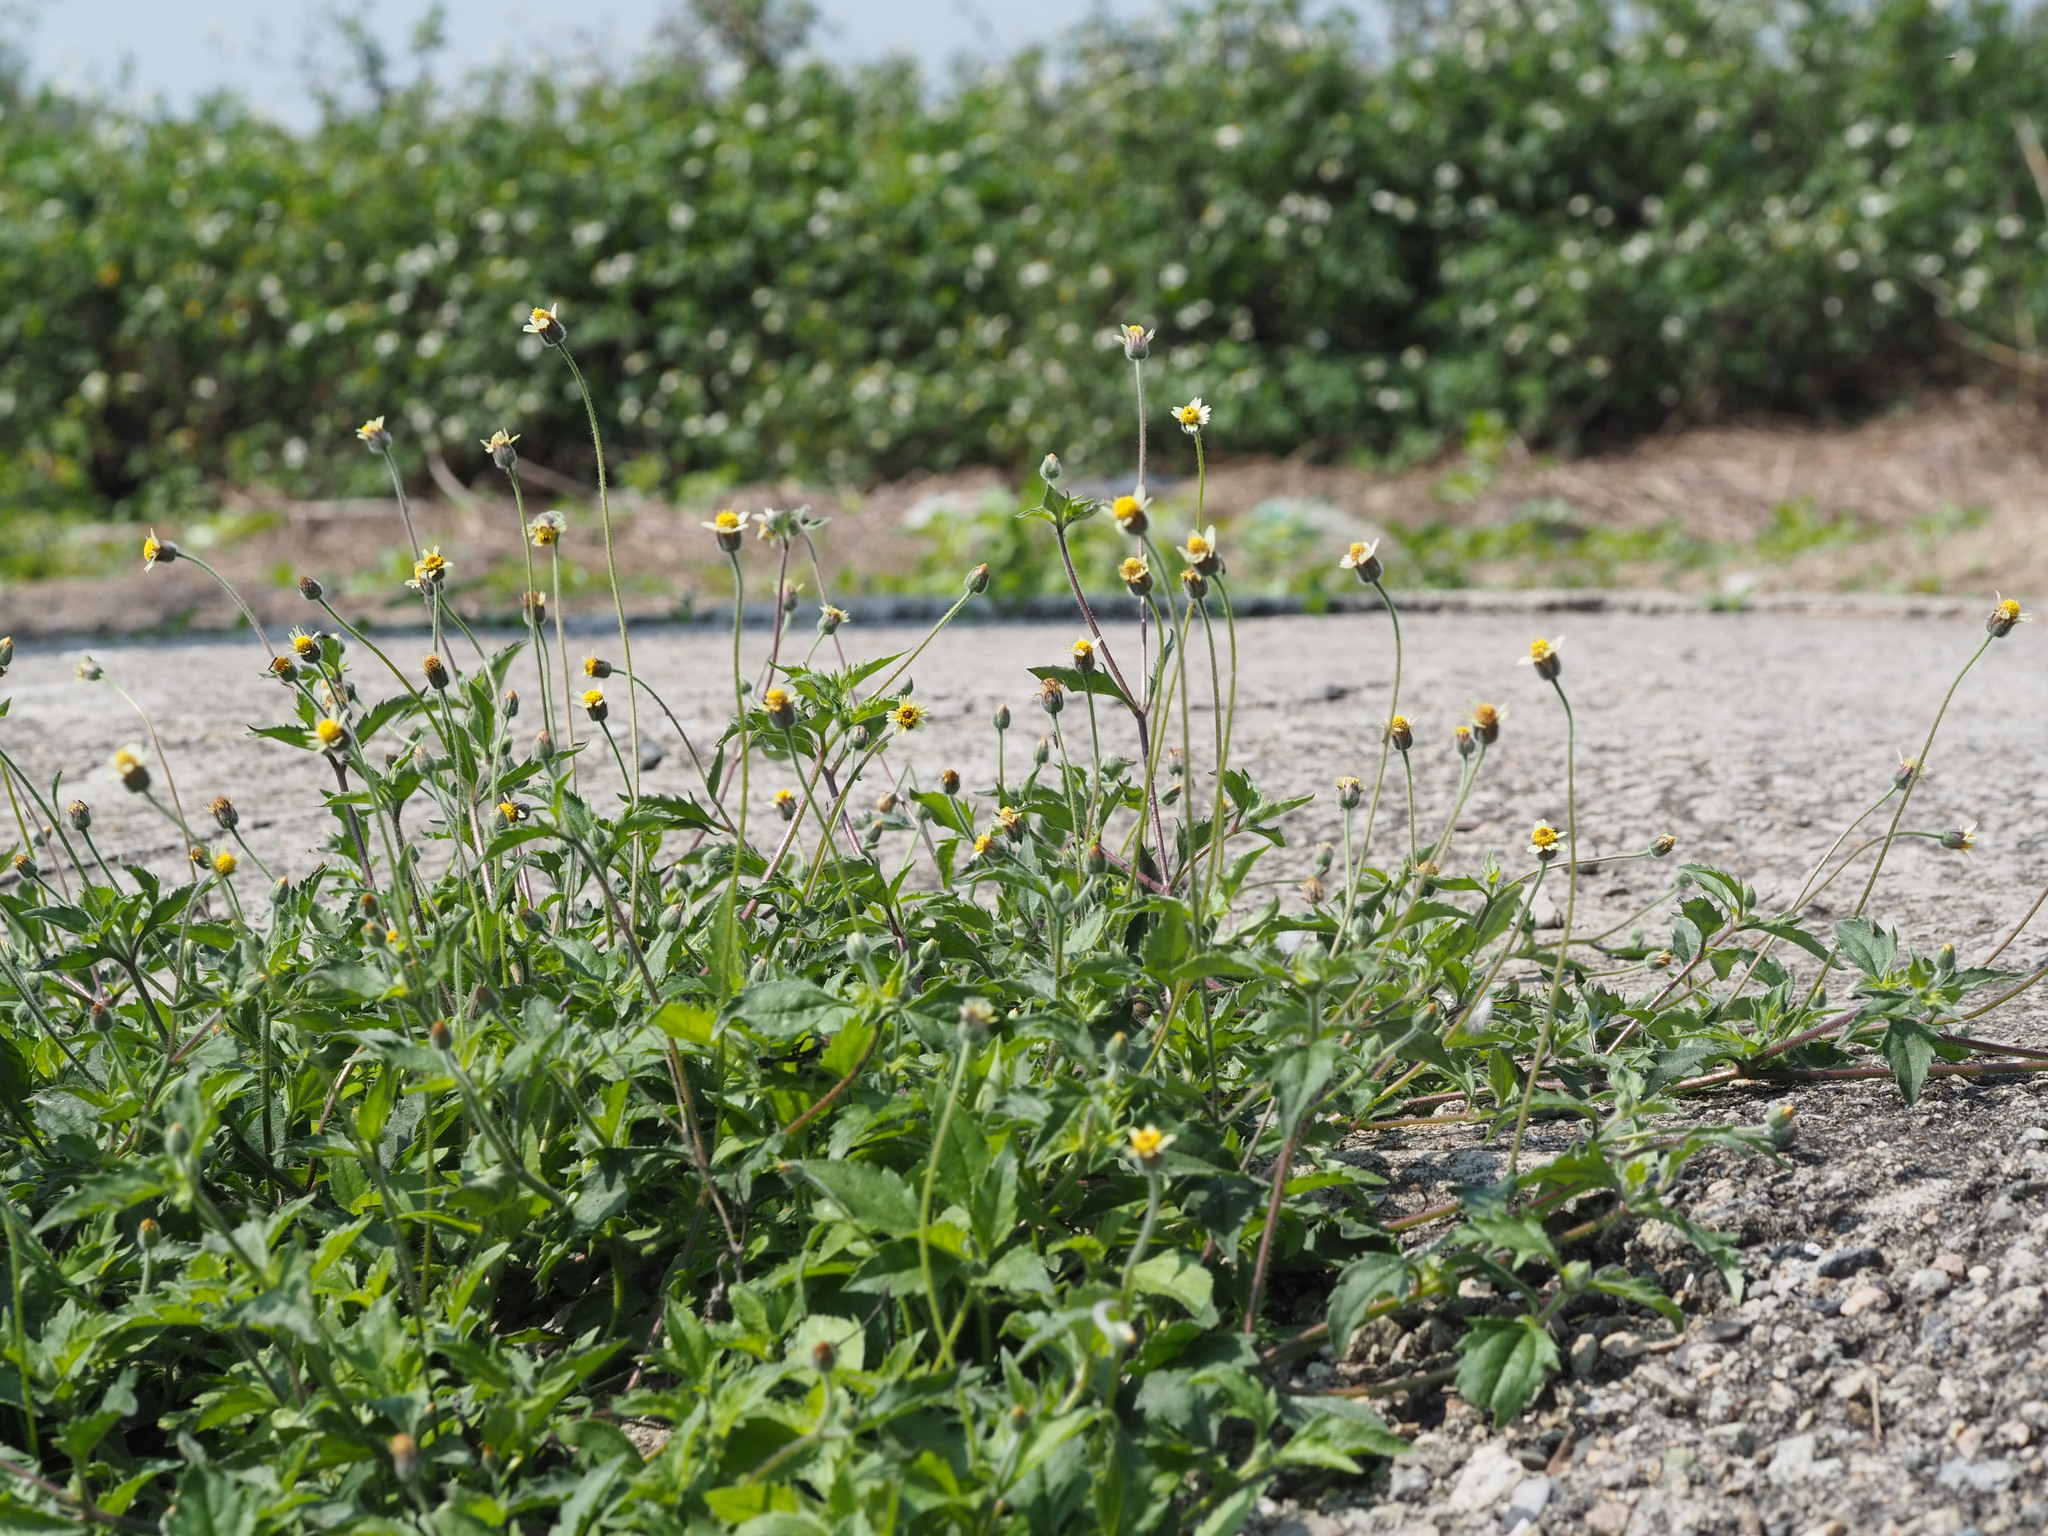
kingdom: Plantae
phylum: Tracheophyta
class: Magnoliopsida
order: Asterales
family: Asteraceae
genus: Tridax
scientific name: Tridax procumbens
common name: Coatbuttons
